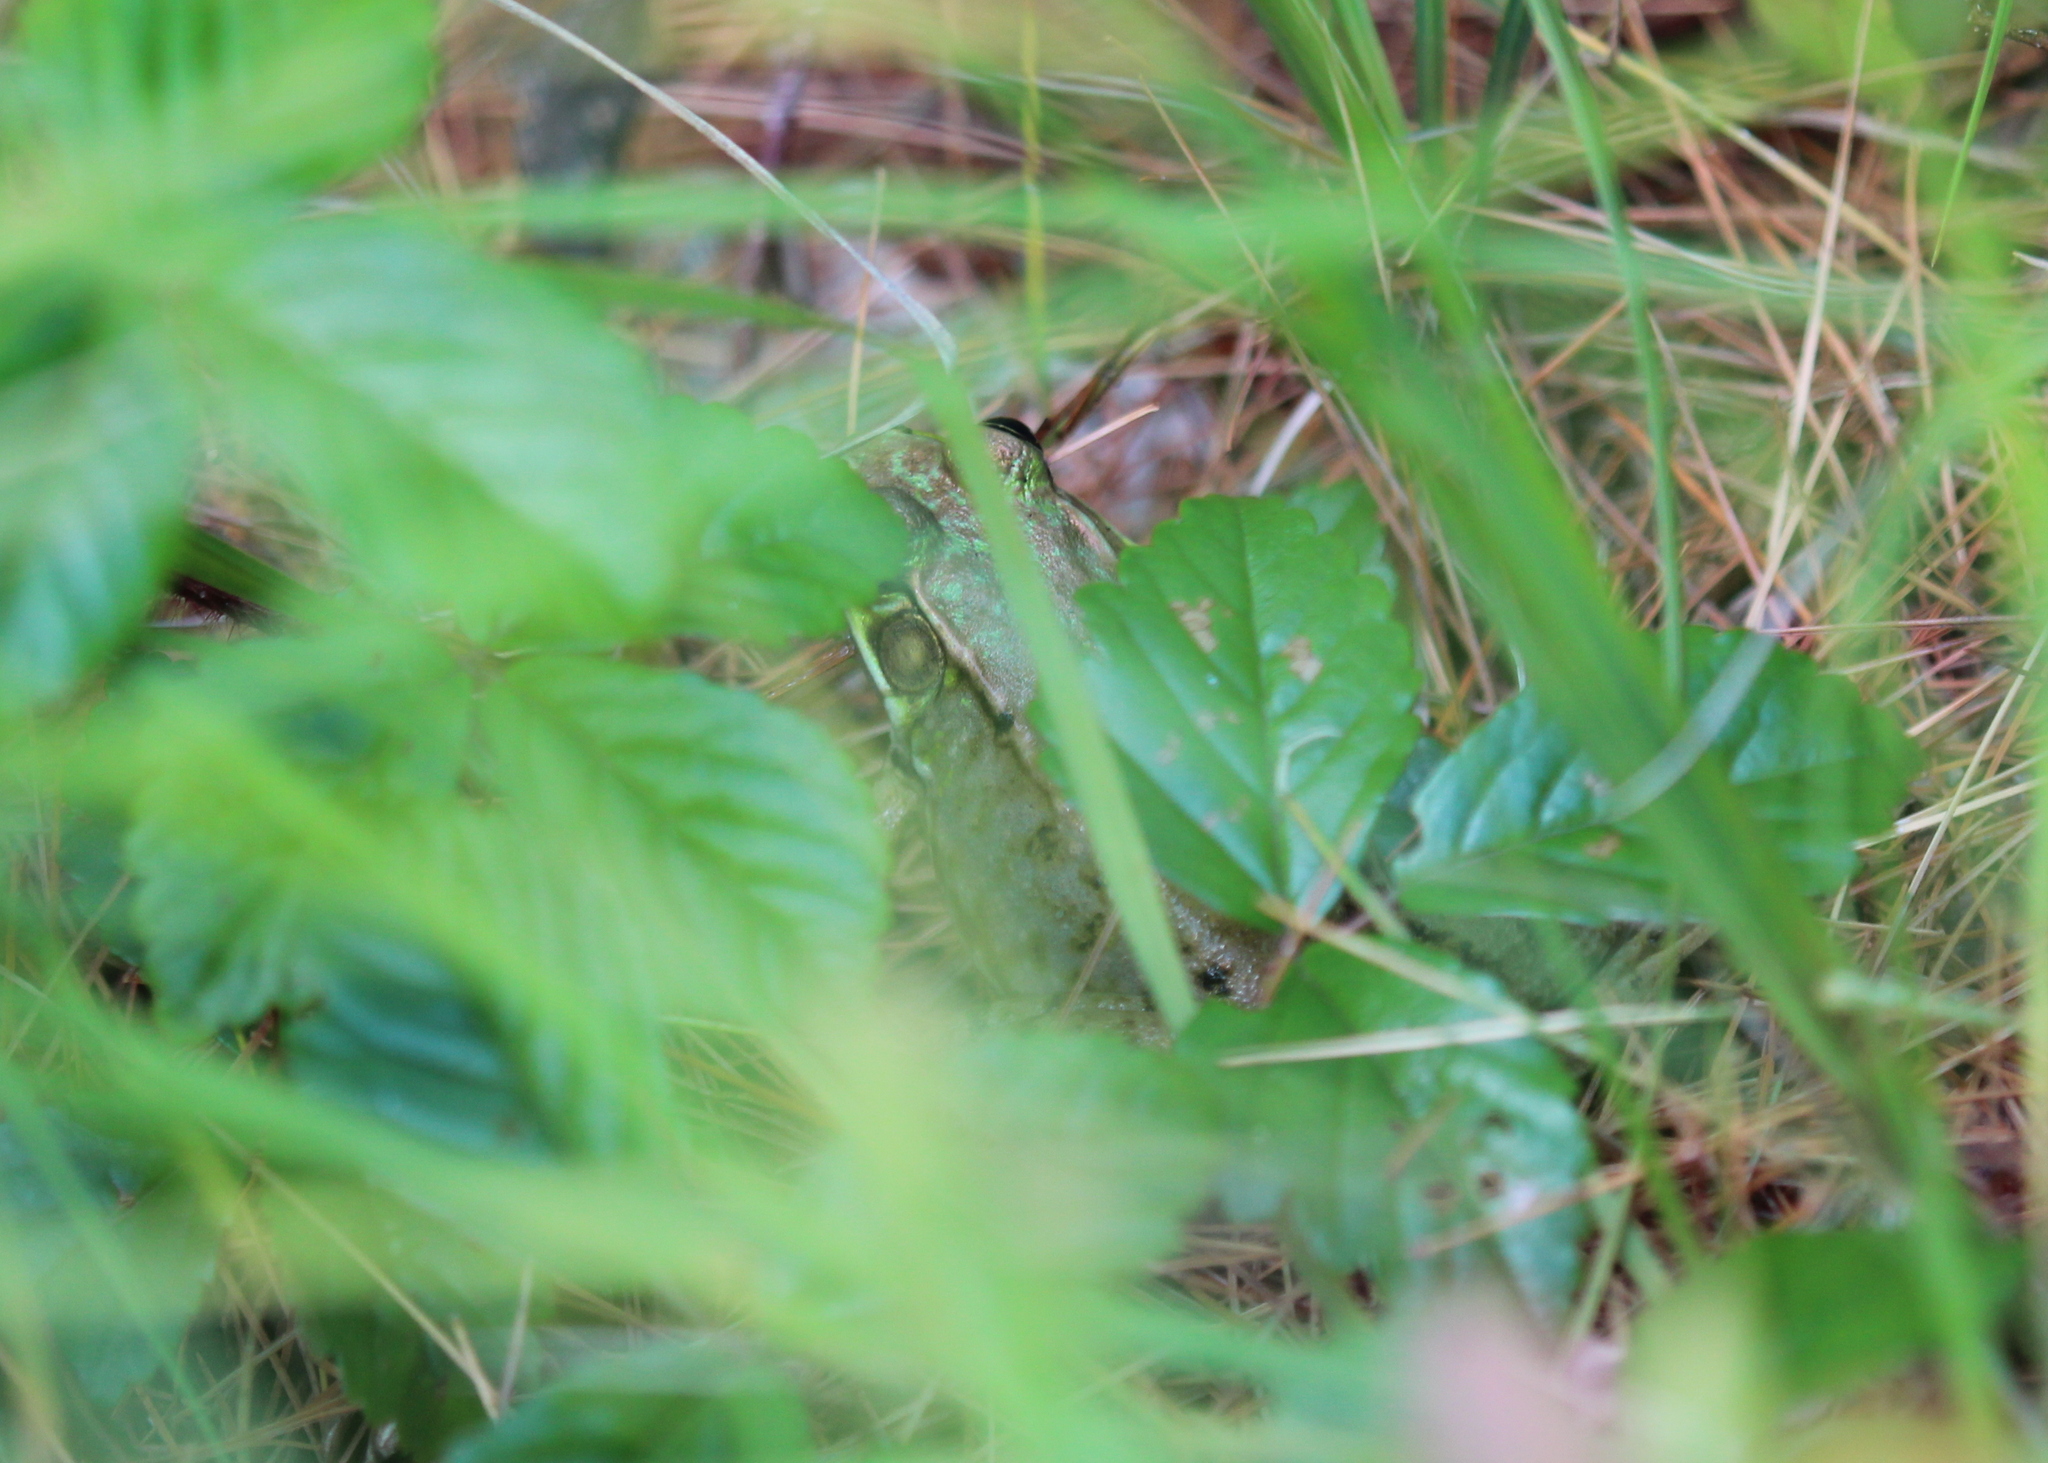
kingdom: Animalia
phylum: Chordata
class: Amphibia
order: Anura
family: Ranidae
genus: Lithobates
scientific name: Lithobates clamitans
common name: Green frog
